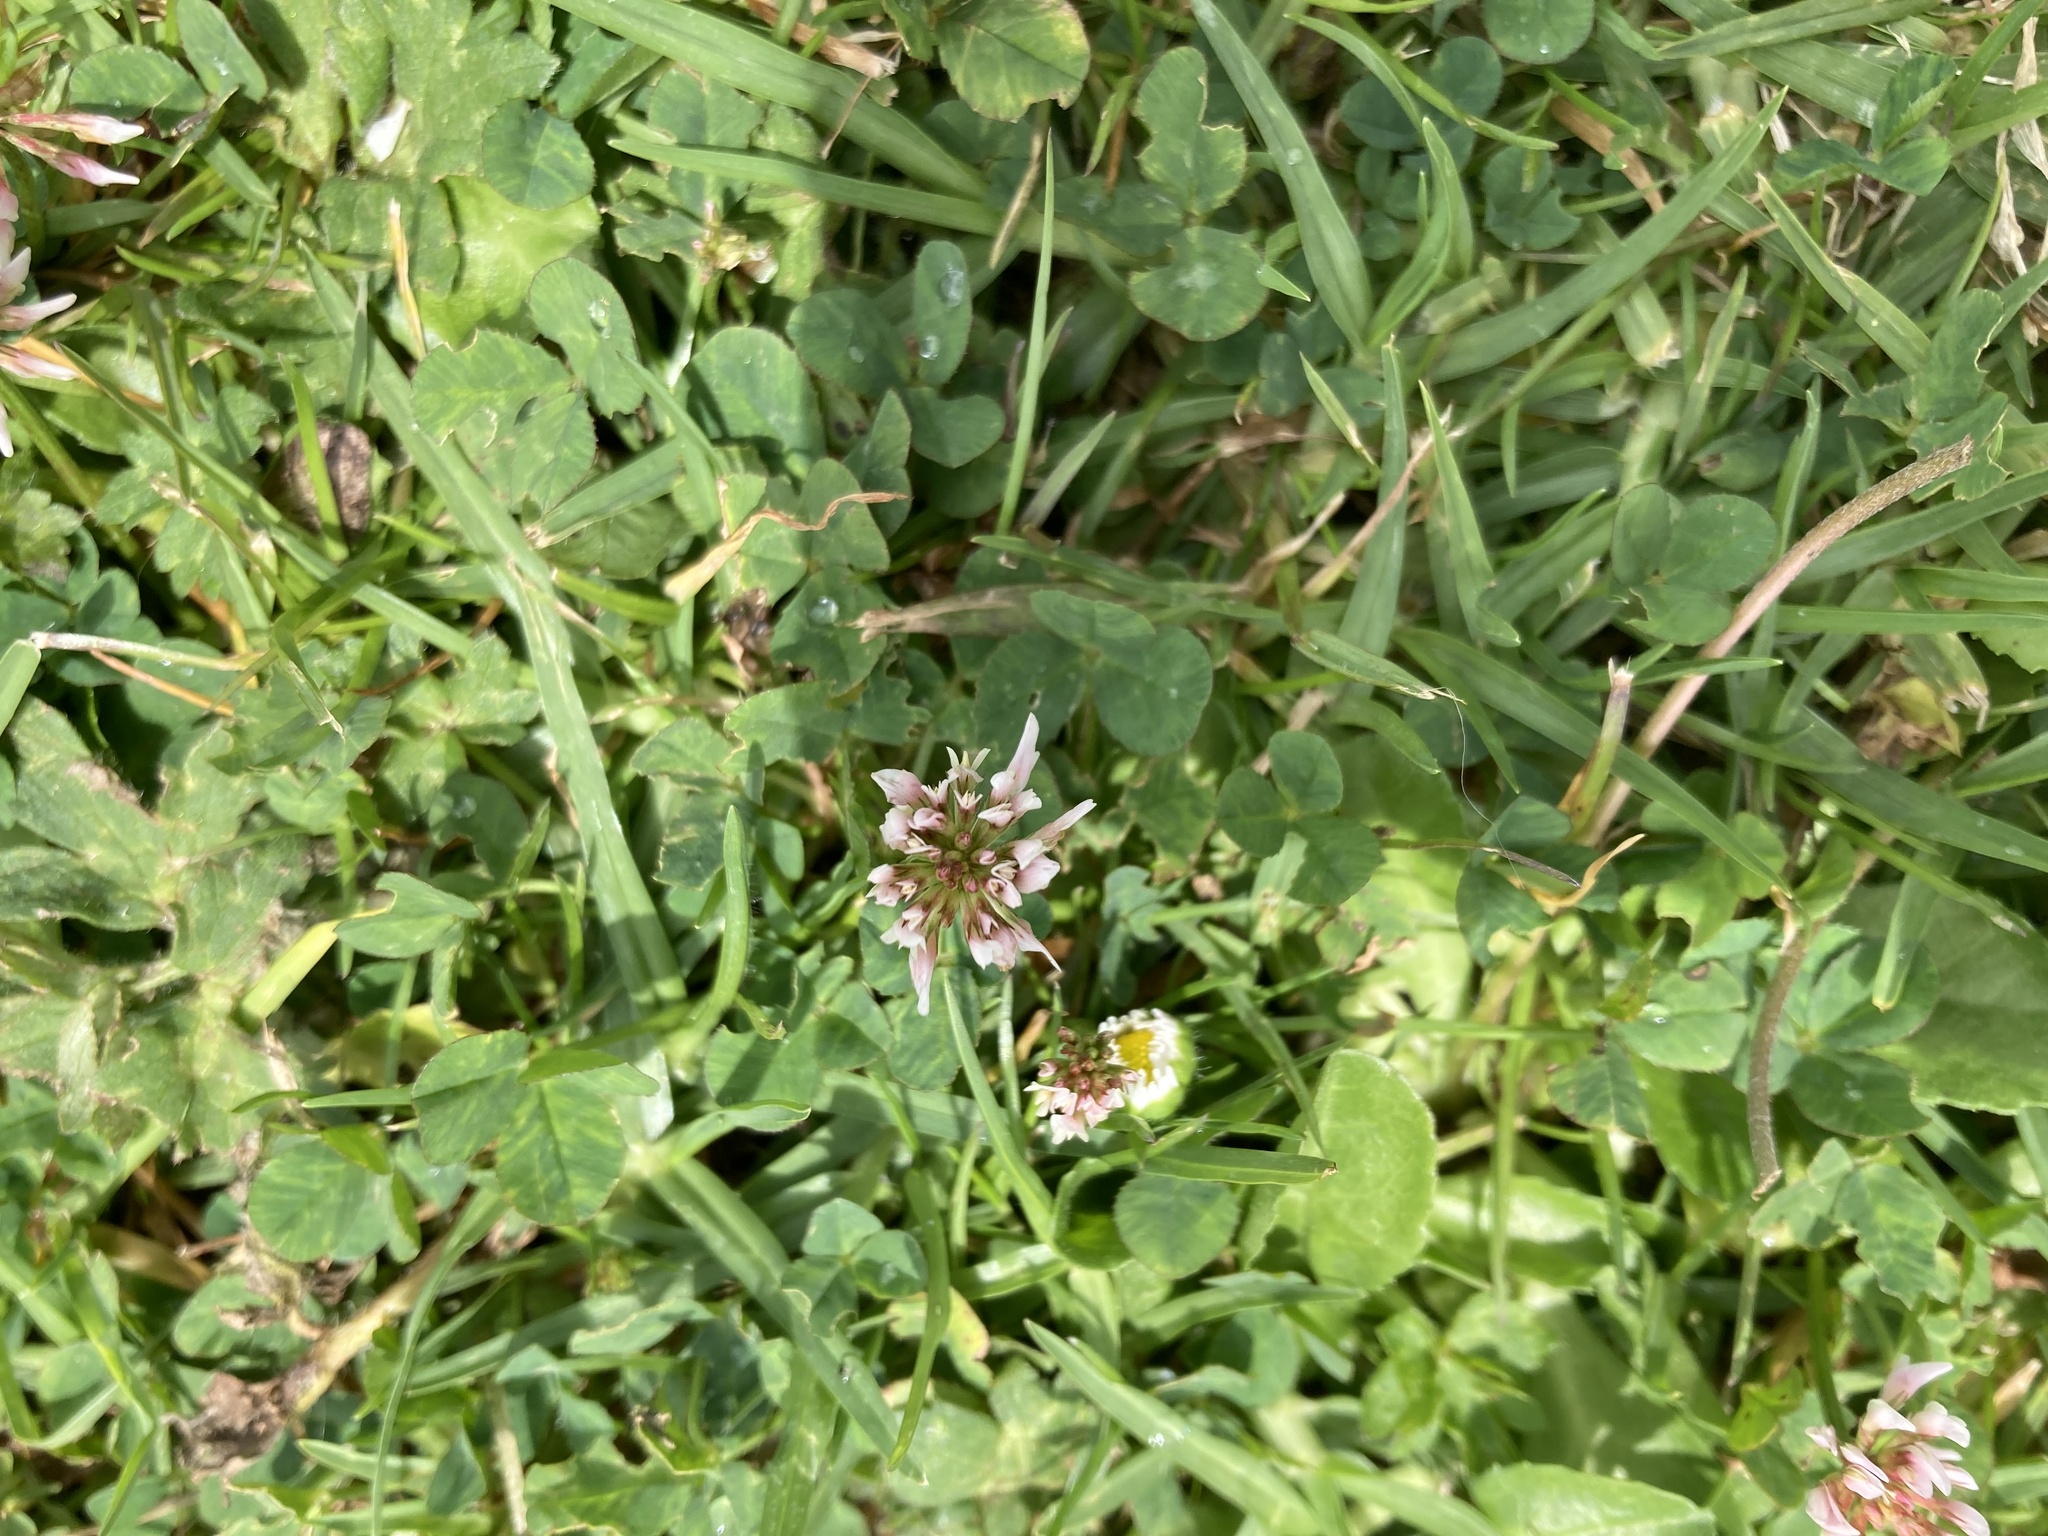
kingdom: Plantae
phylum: Tracheophyta
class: Magnoliopsida
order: Fabales
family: Fabaceae
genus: Trifolium
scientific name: Trifolium repens
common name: White clover
